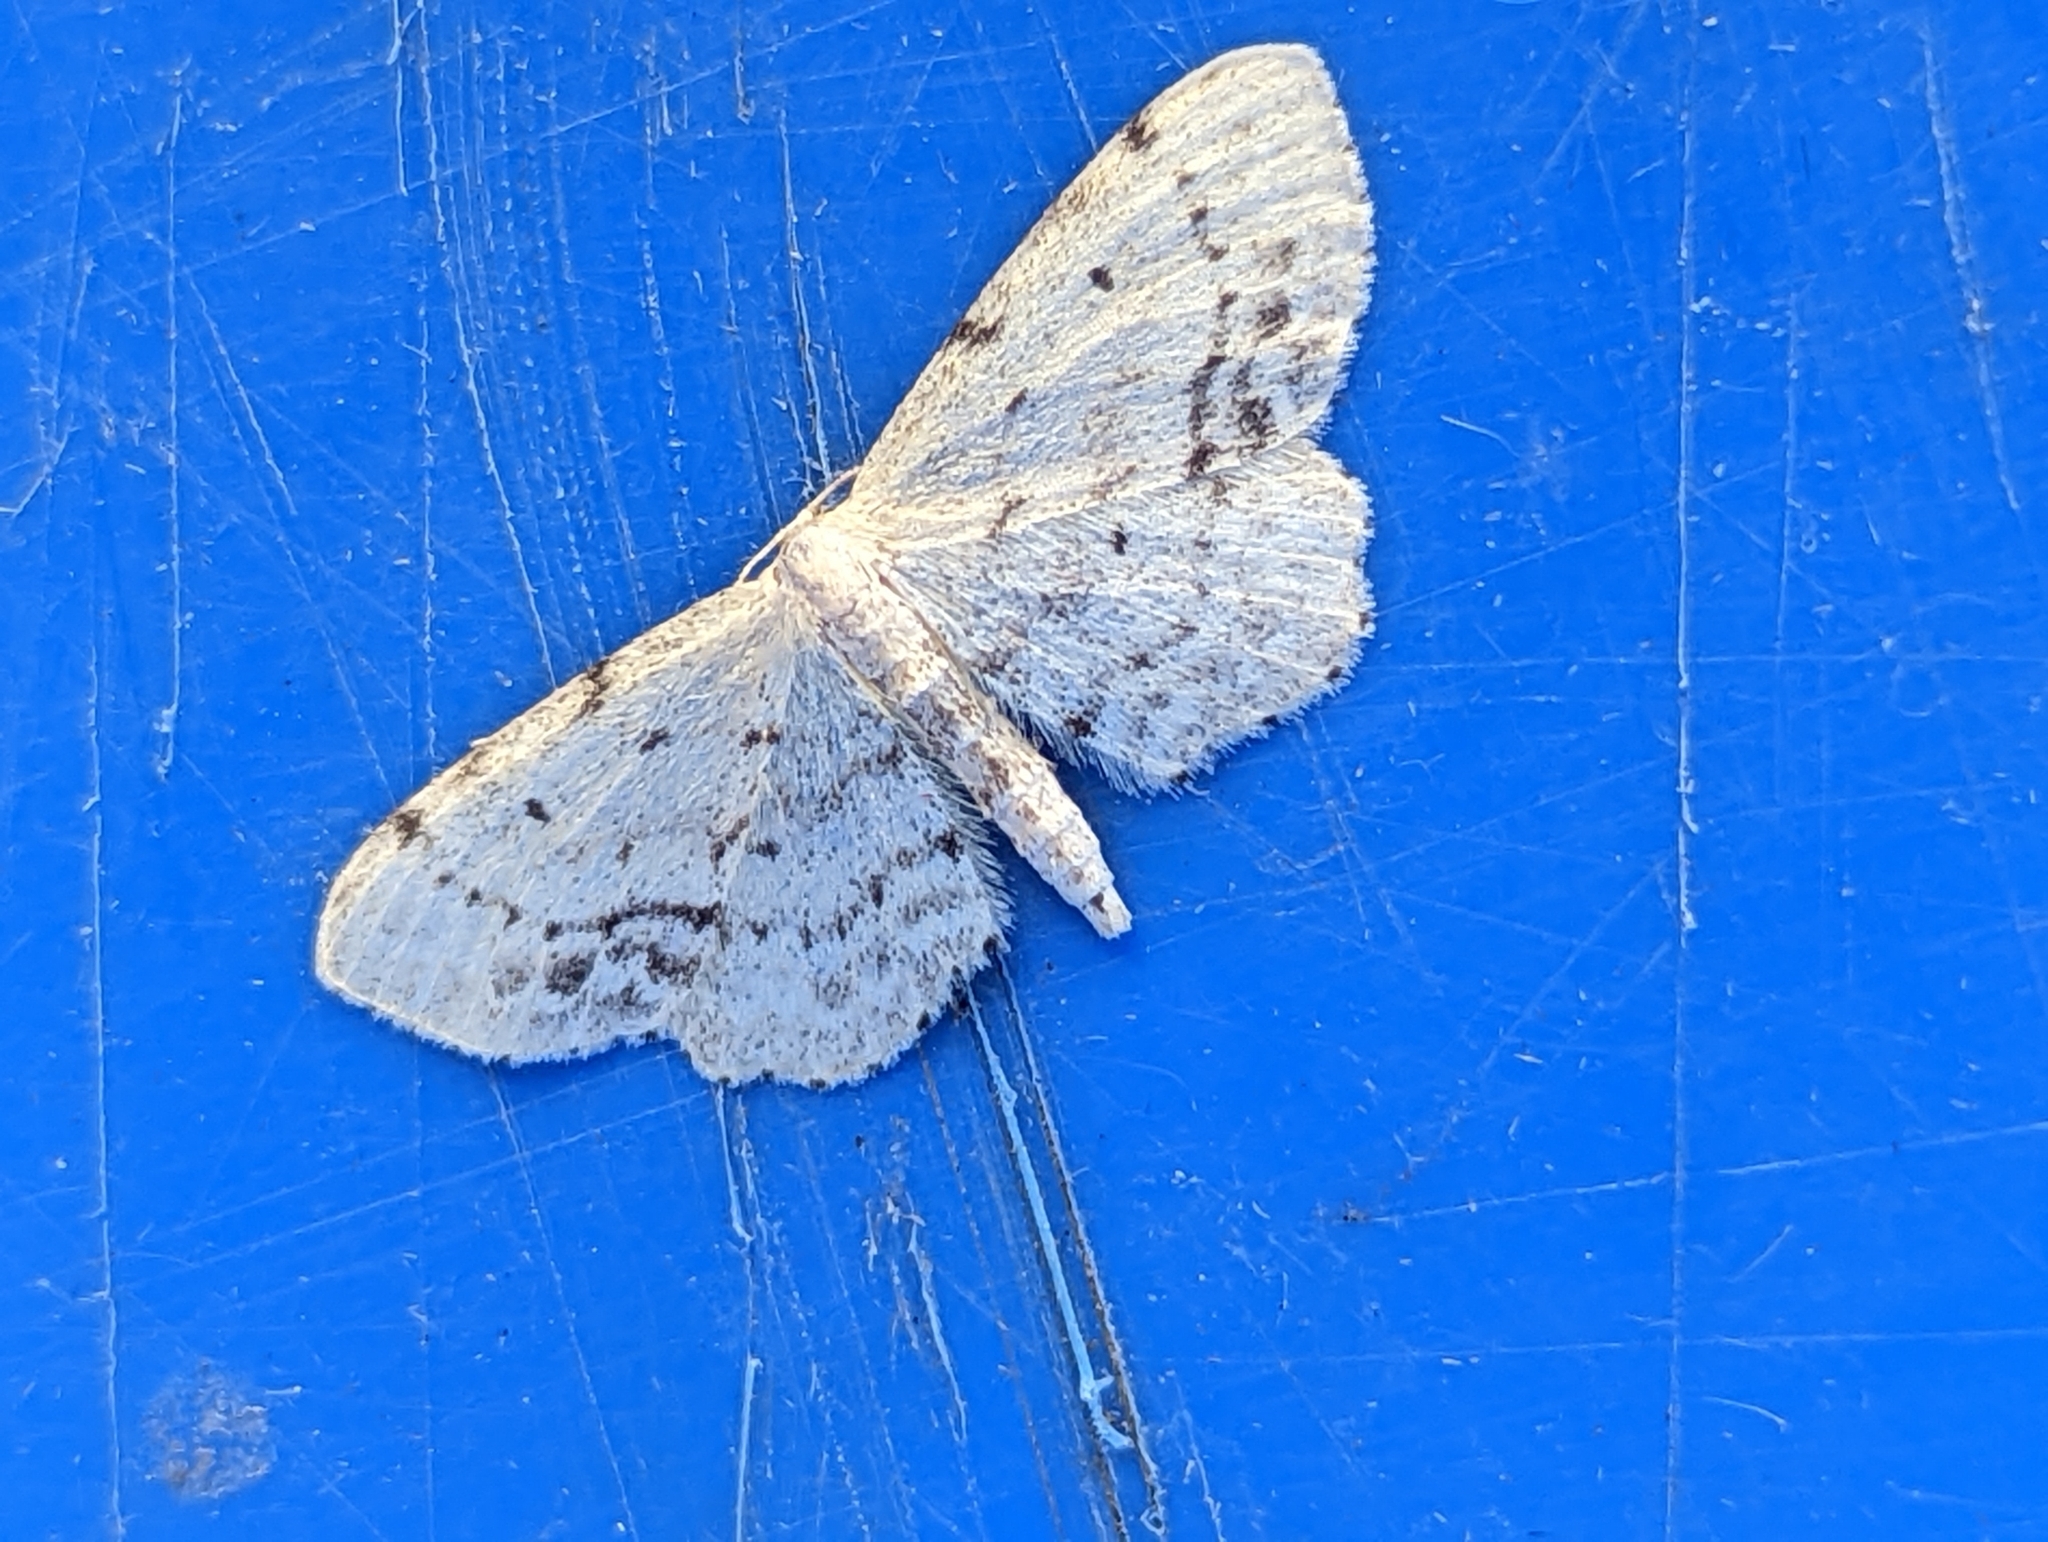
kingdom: Animalia
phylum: Arthropoda
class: Insecta
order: Lepidoptera
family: Geometridae
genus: Idaea
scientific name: Idaea dimidiata
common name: Single-dotted wave
